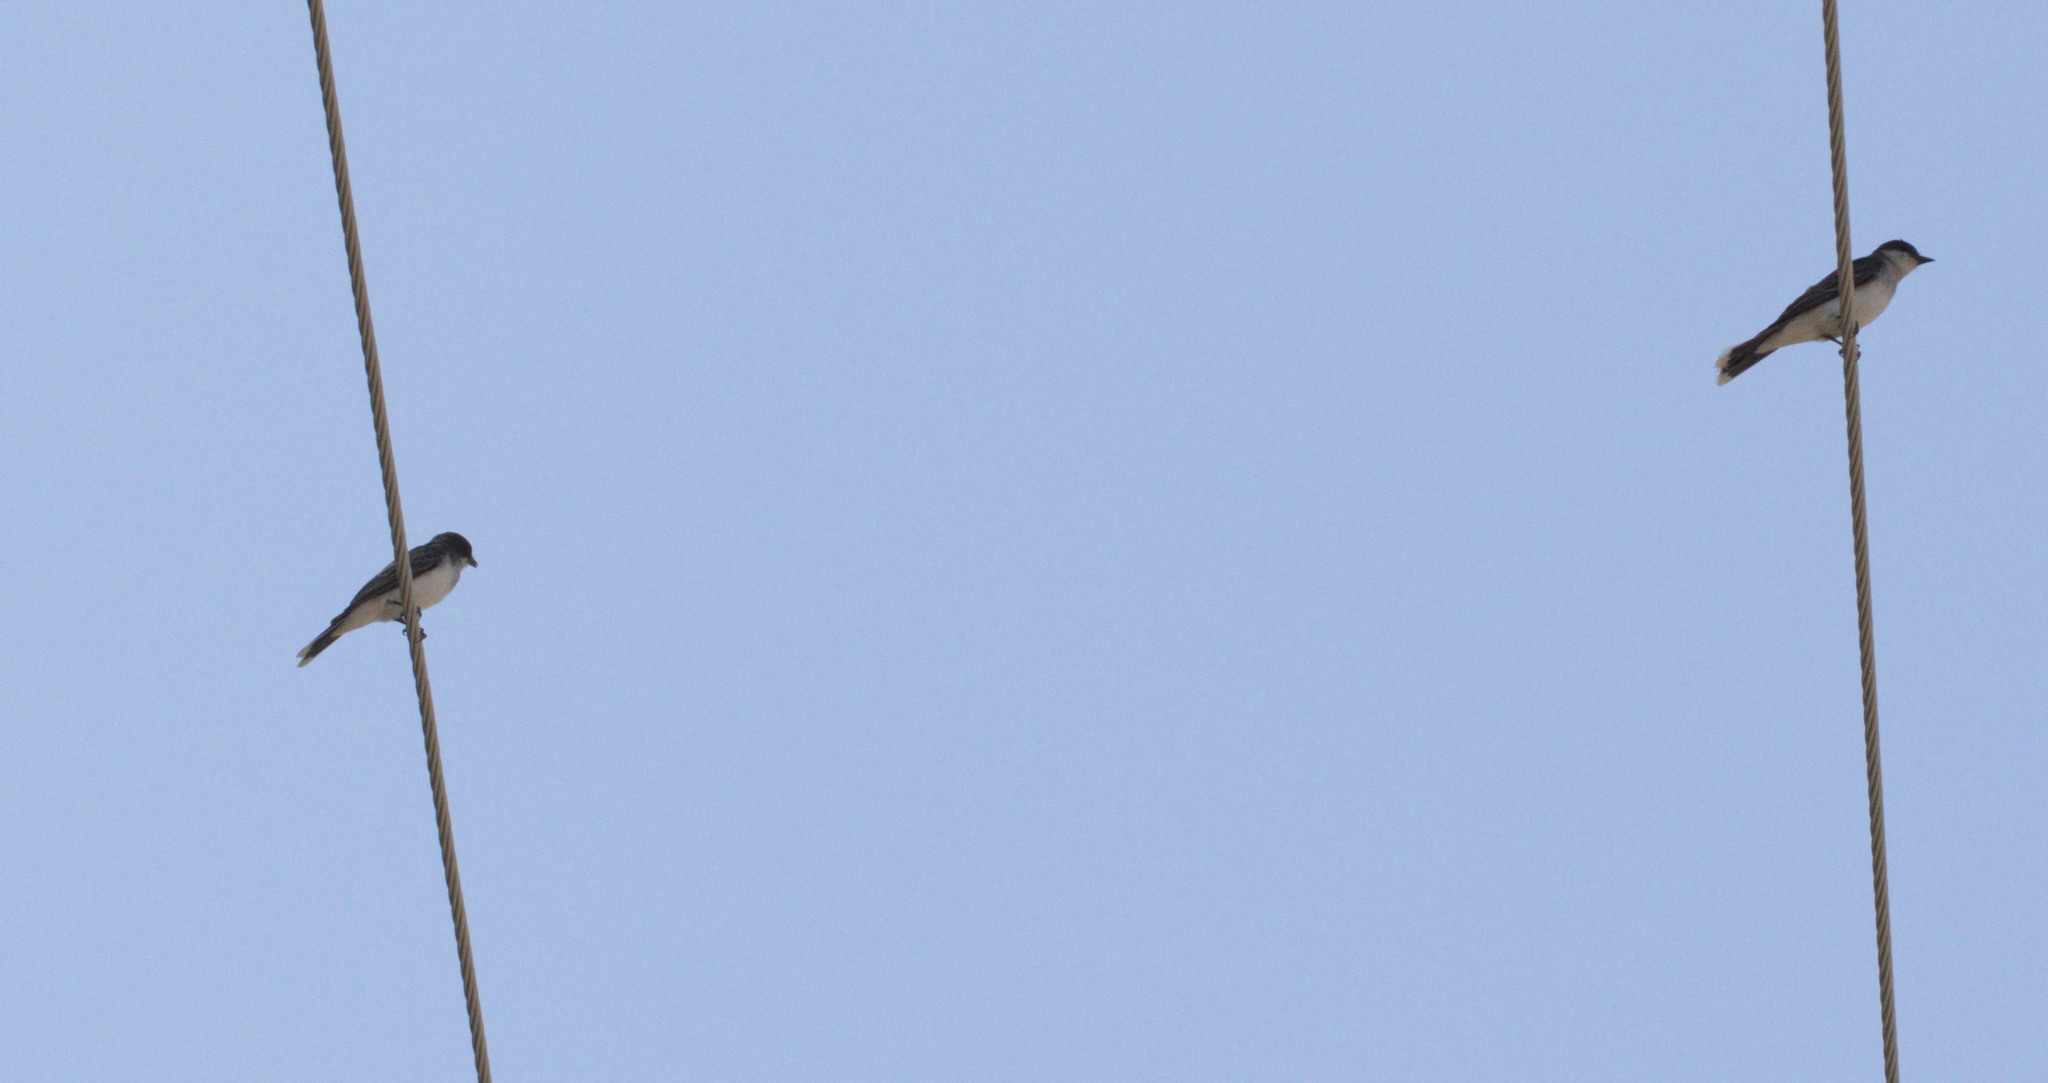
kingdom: Animalia
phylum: Chordata
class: Aves
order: Passeriformes
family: Tyrannidae
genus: Tyrannus
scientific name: Tyrannus tyrannus
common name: Eastern kingbird
